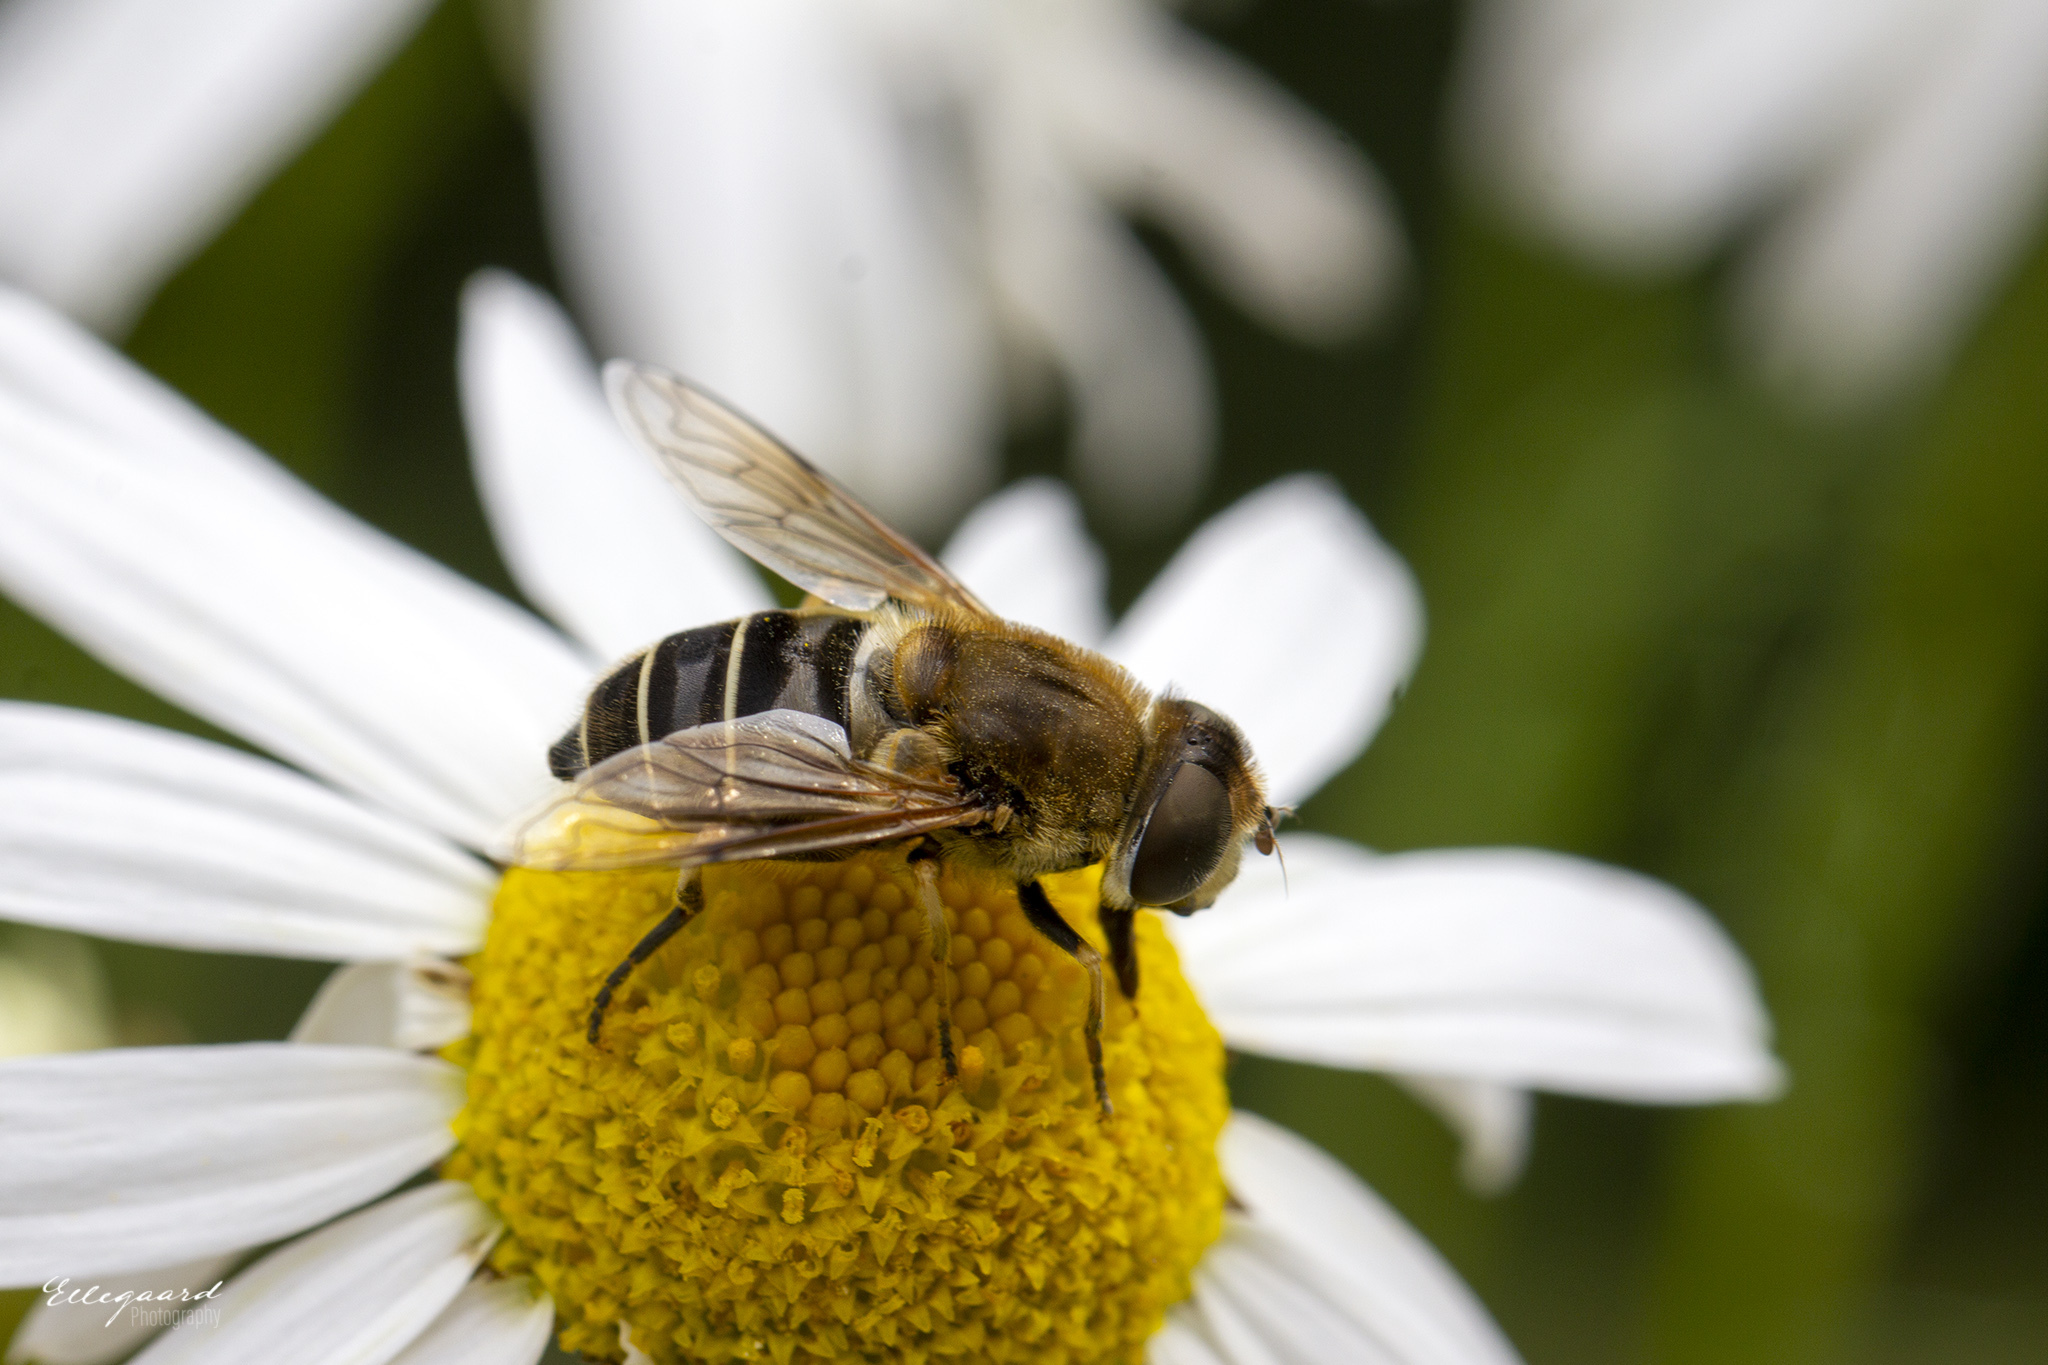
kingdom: Animalia
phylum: Arthropoda
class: Insecta
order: Diptera
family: Syrphidae
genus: Eristalis
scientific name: Eristalis nemorum
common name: Orange-spined drone fly
